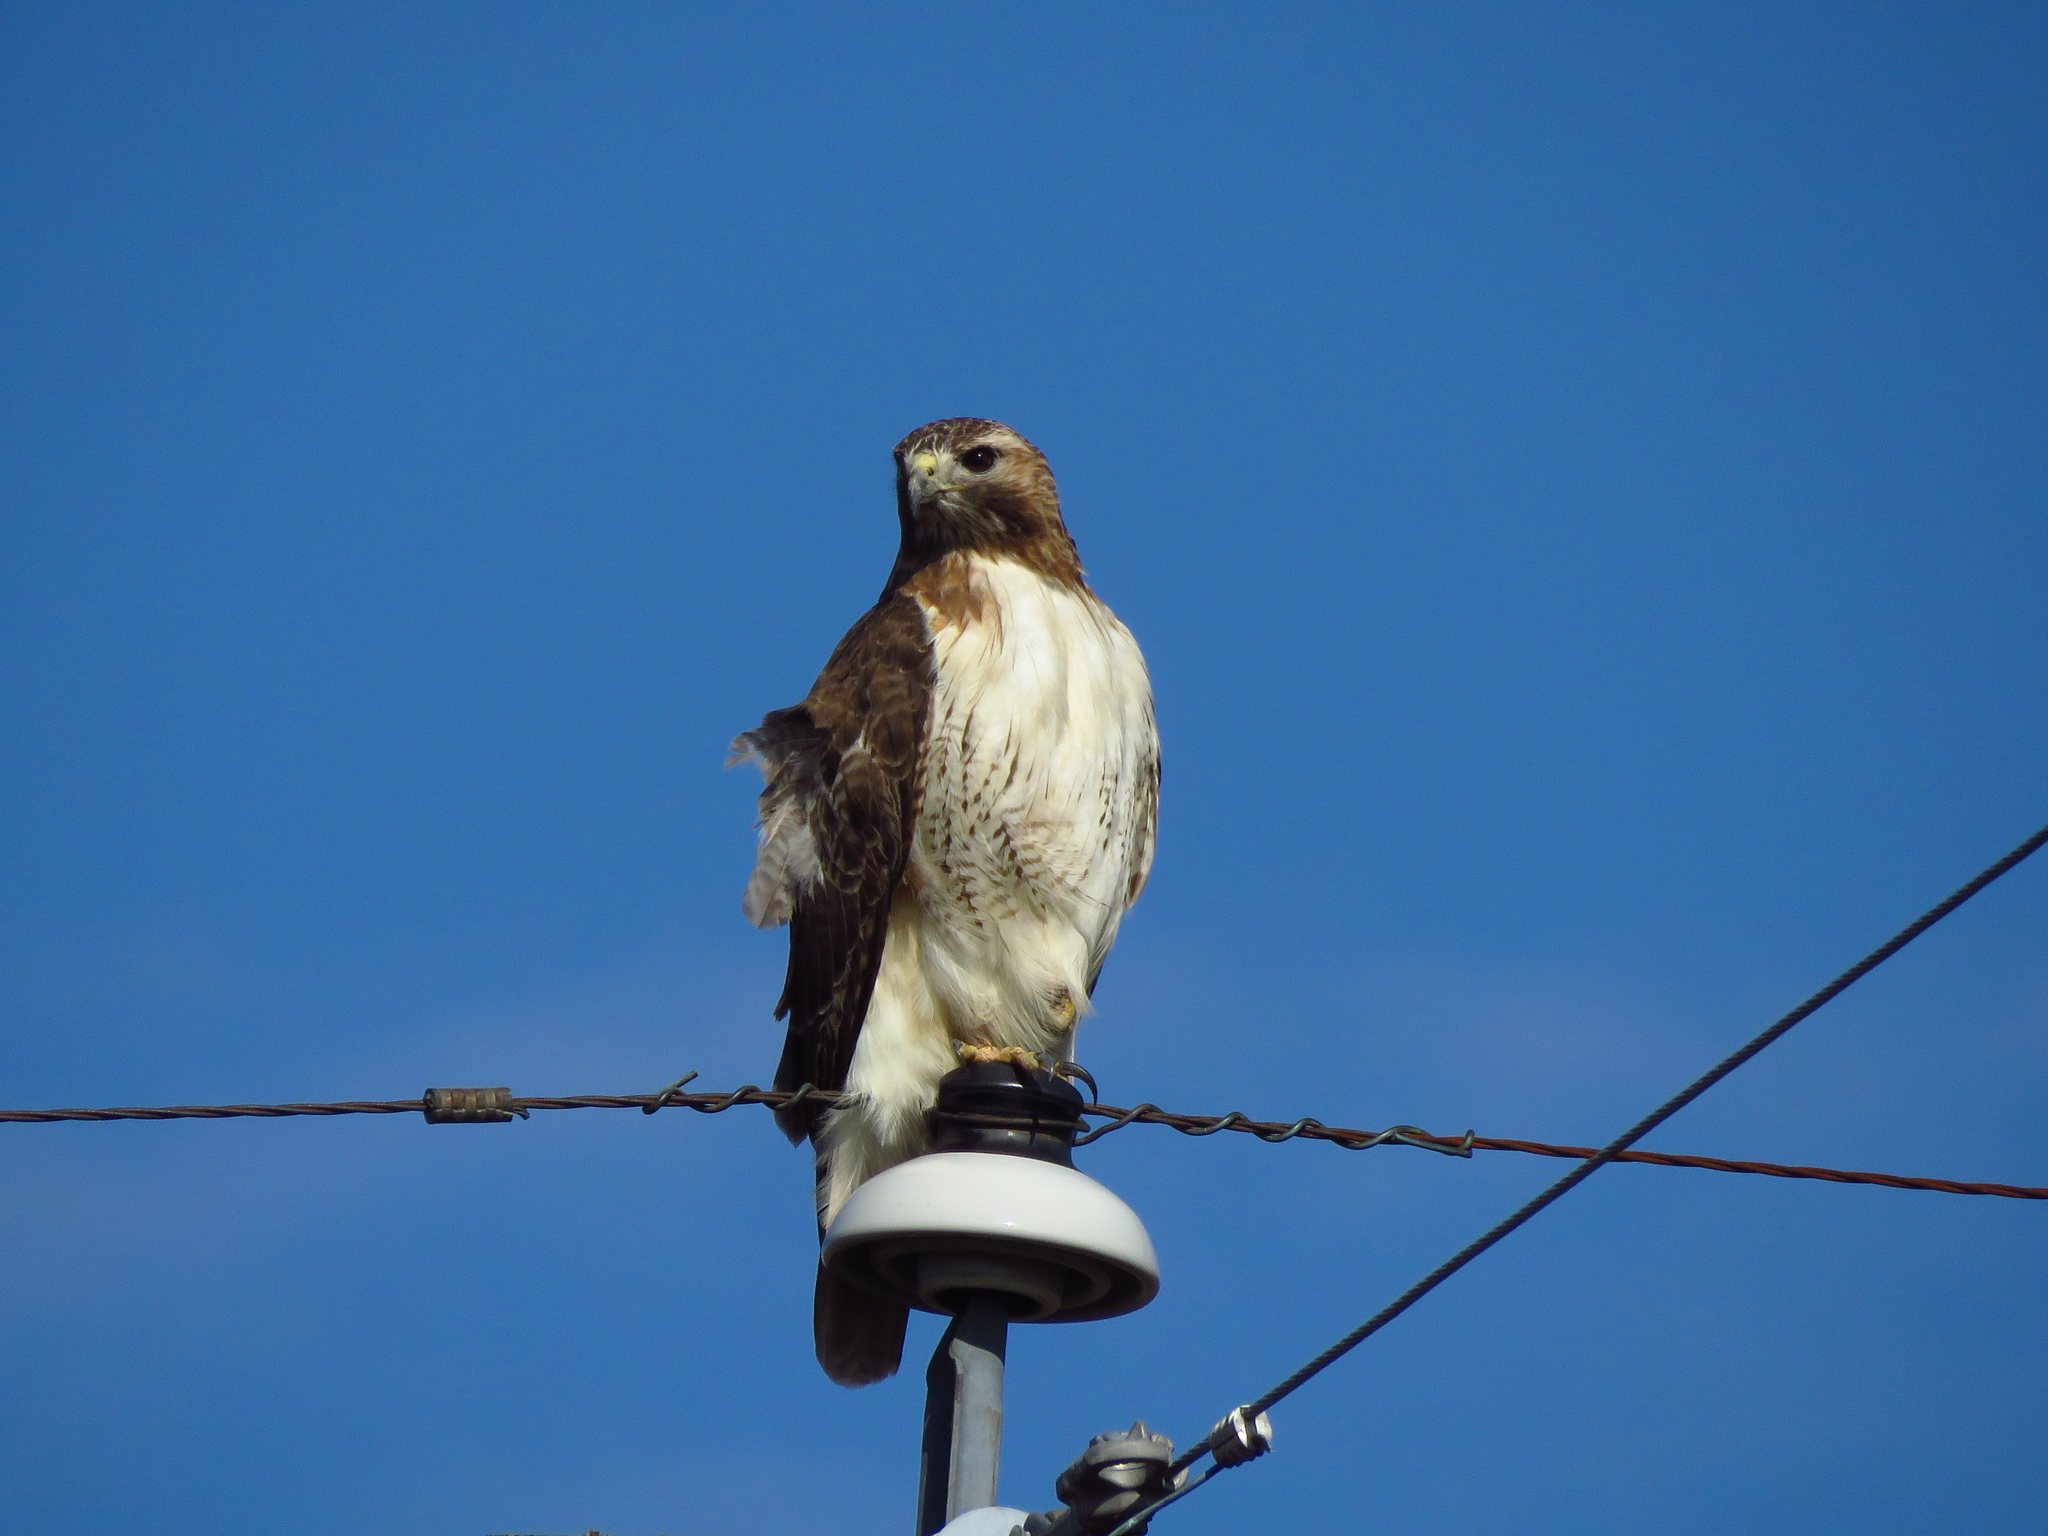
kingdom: Animalia
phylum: Chordata
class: Aves
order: Accipitriformes
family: Accipitridae
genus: Buteo
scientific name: Buteo jamaicensis
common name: Red-tailed hawk
